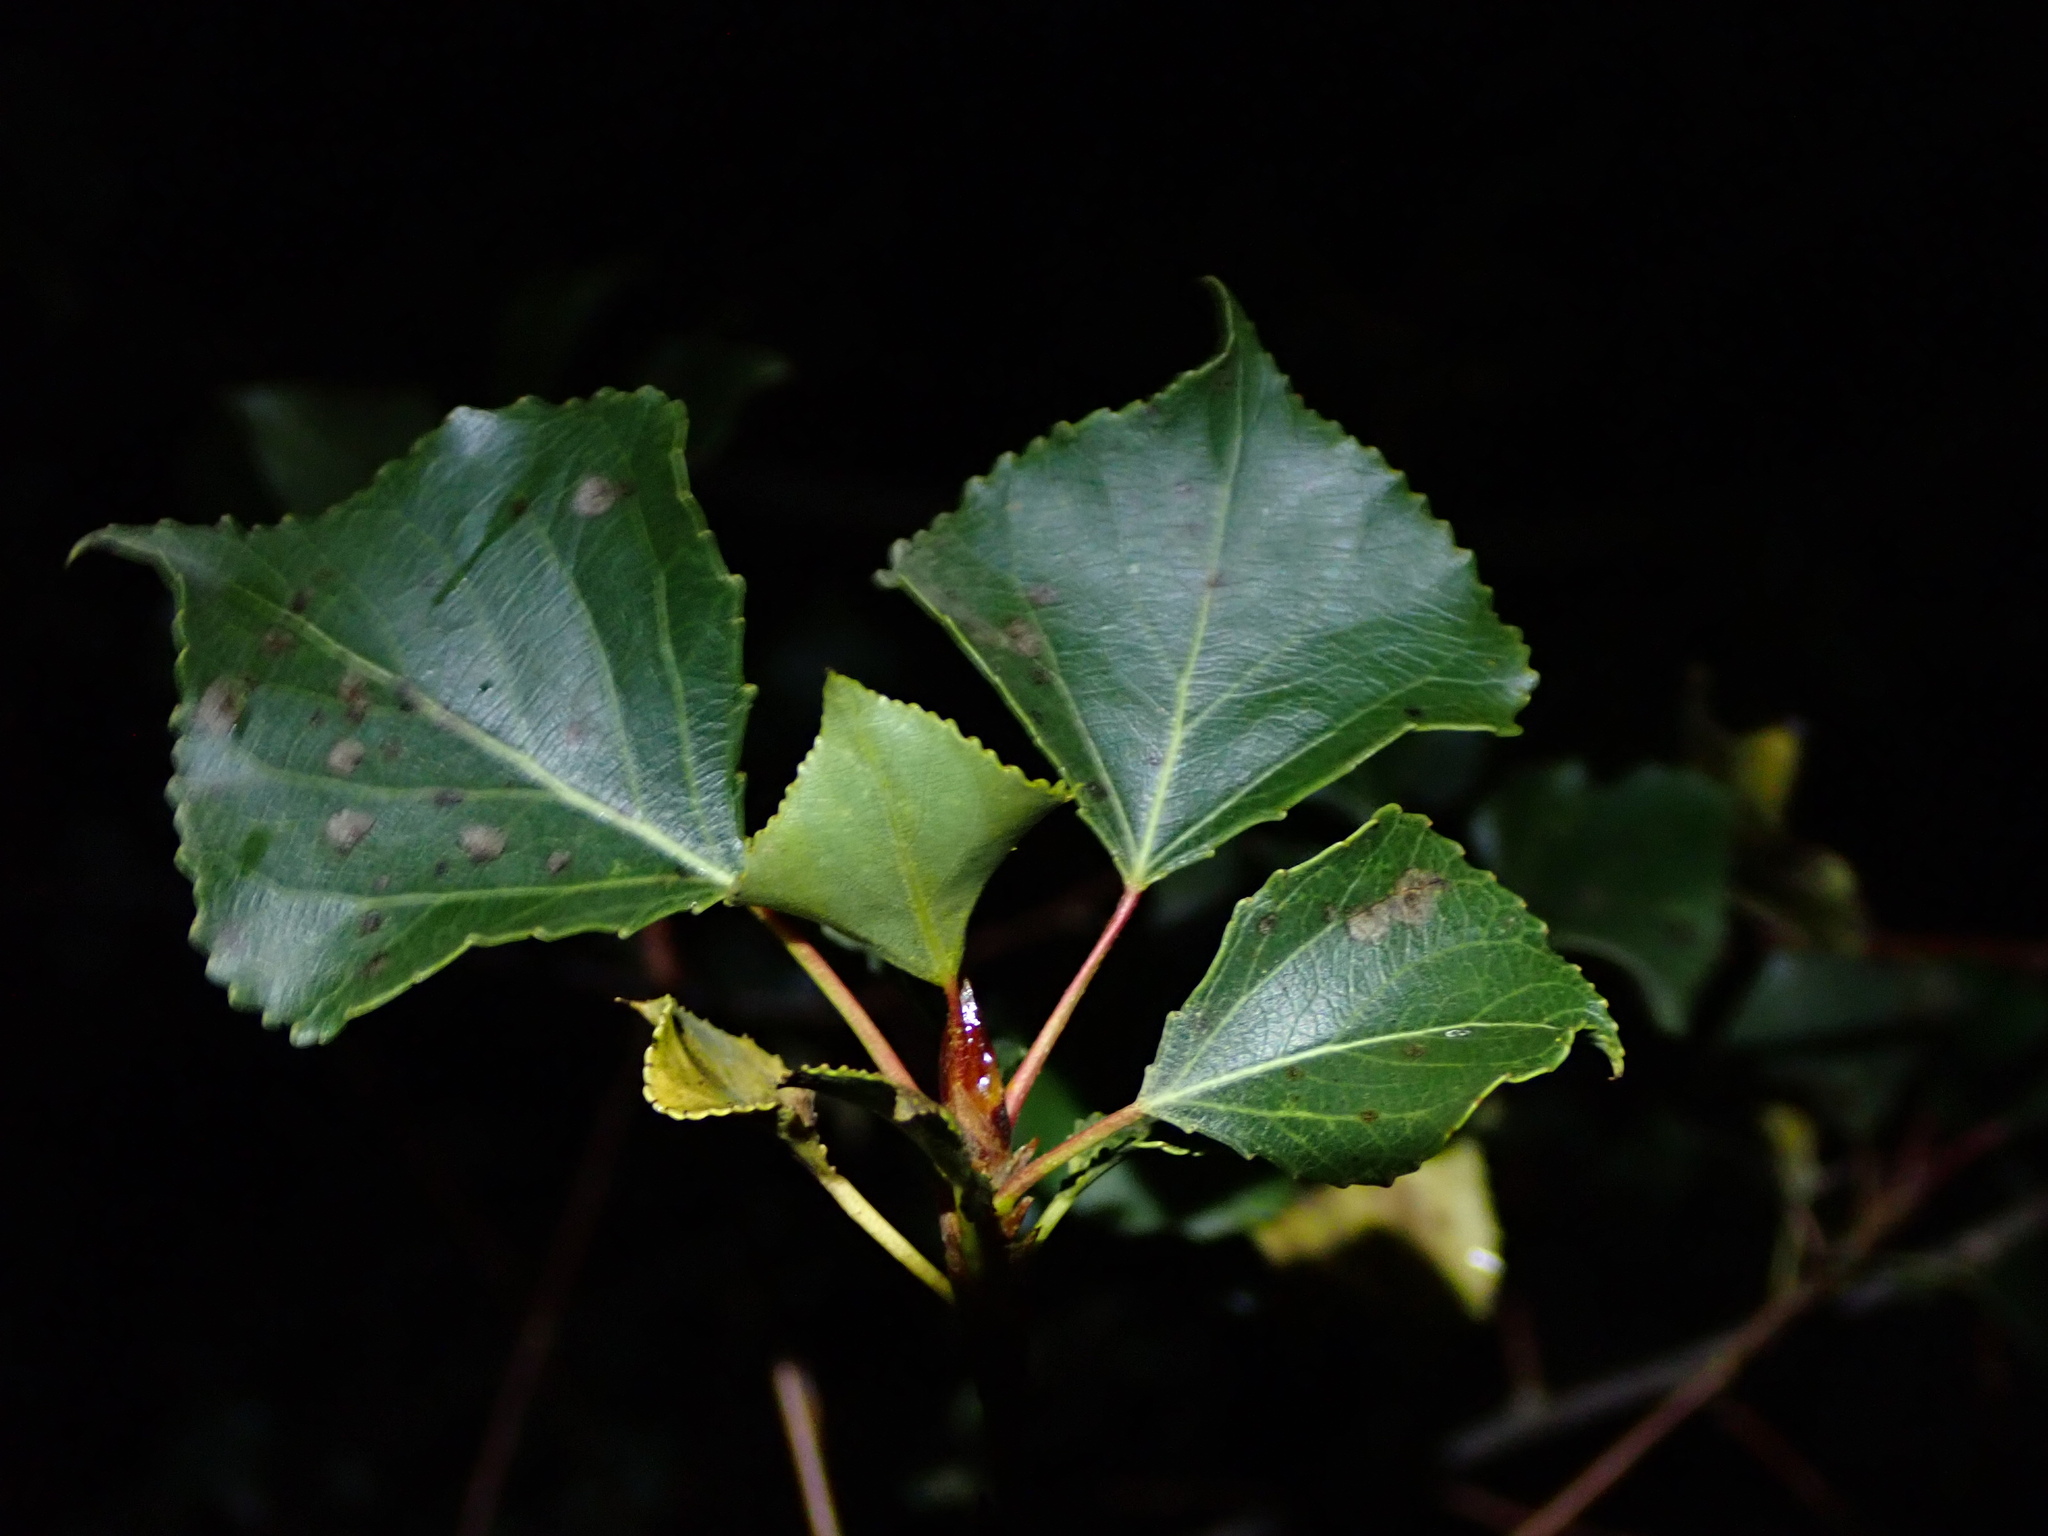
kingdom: Plantae
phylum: Tracheophyta
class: Magnoliopsida
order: Malpighiales
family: Salicaceae
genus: Populus
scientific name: Populus nigra
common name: Black poplar
